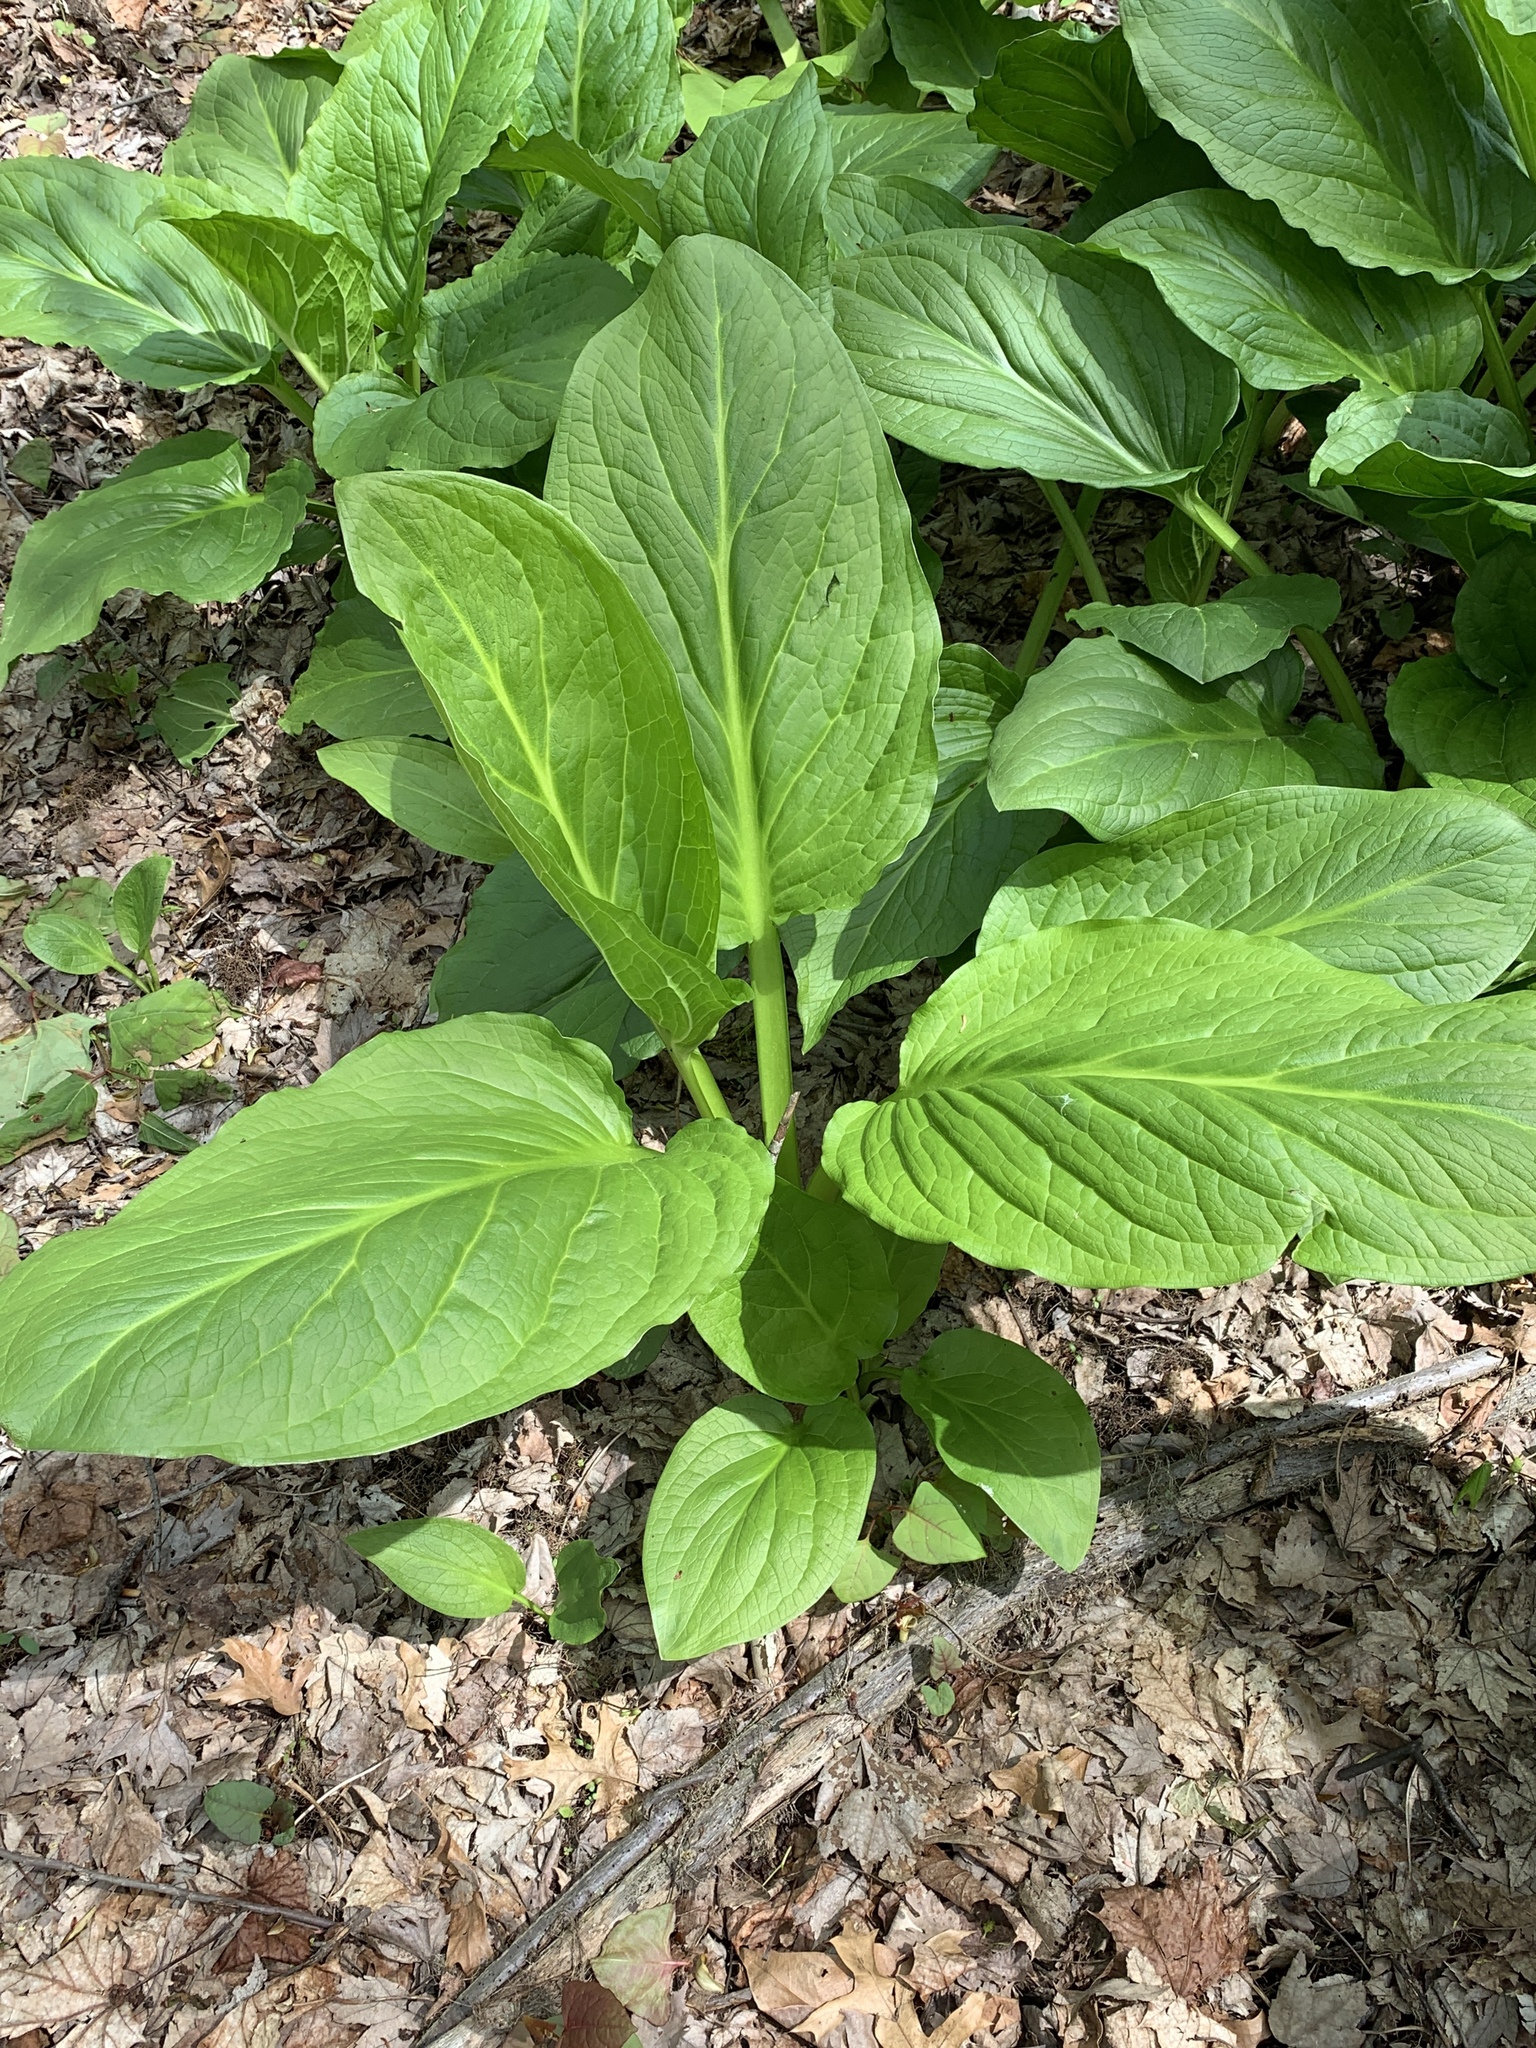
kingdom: Plantae
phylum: Tracheophyta
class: Liliopsida
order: Alismatales
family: Araceae
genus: Symplocarpus
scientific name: Symplocarpus foetidus
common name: Eastern skunk cabbage
